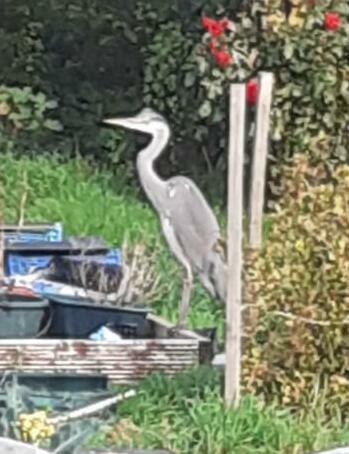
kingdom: Animalia
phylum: Chordata
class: Aves
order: Pelecaniformes
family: Ardeidae
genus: Ardea
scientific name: Ardea cinerea
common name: Grey heron
